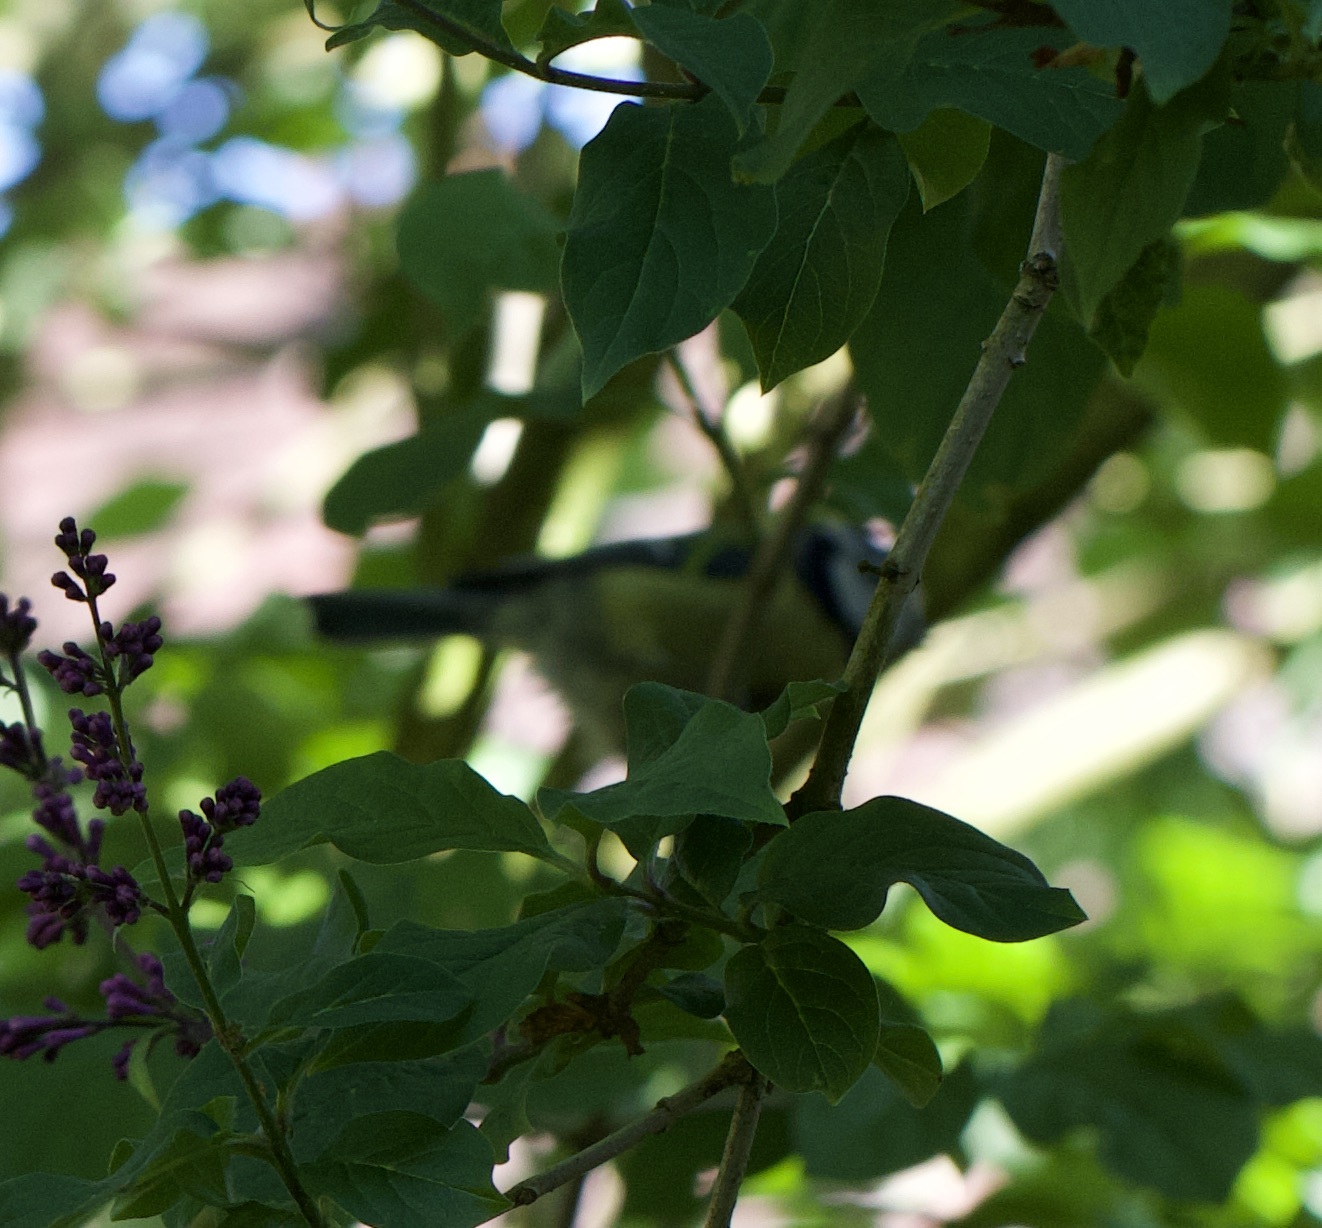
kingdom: Animalia
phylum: Chordata
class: Aves
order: Passeriformes
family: Paridae
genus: Cyanistes
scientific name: Cyanistes caeruleus
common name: Eurasian blue tit
